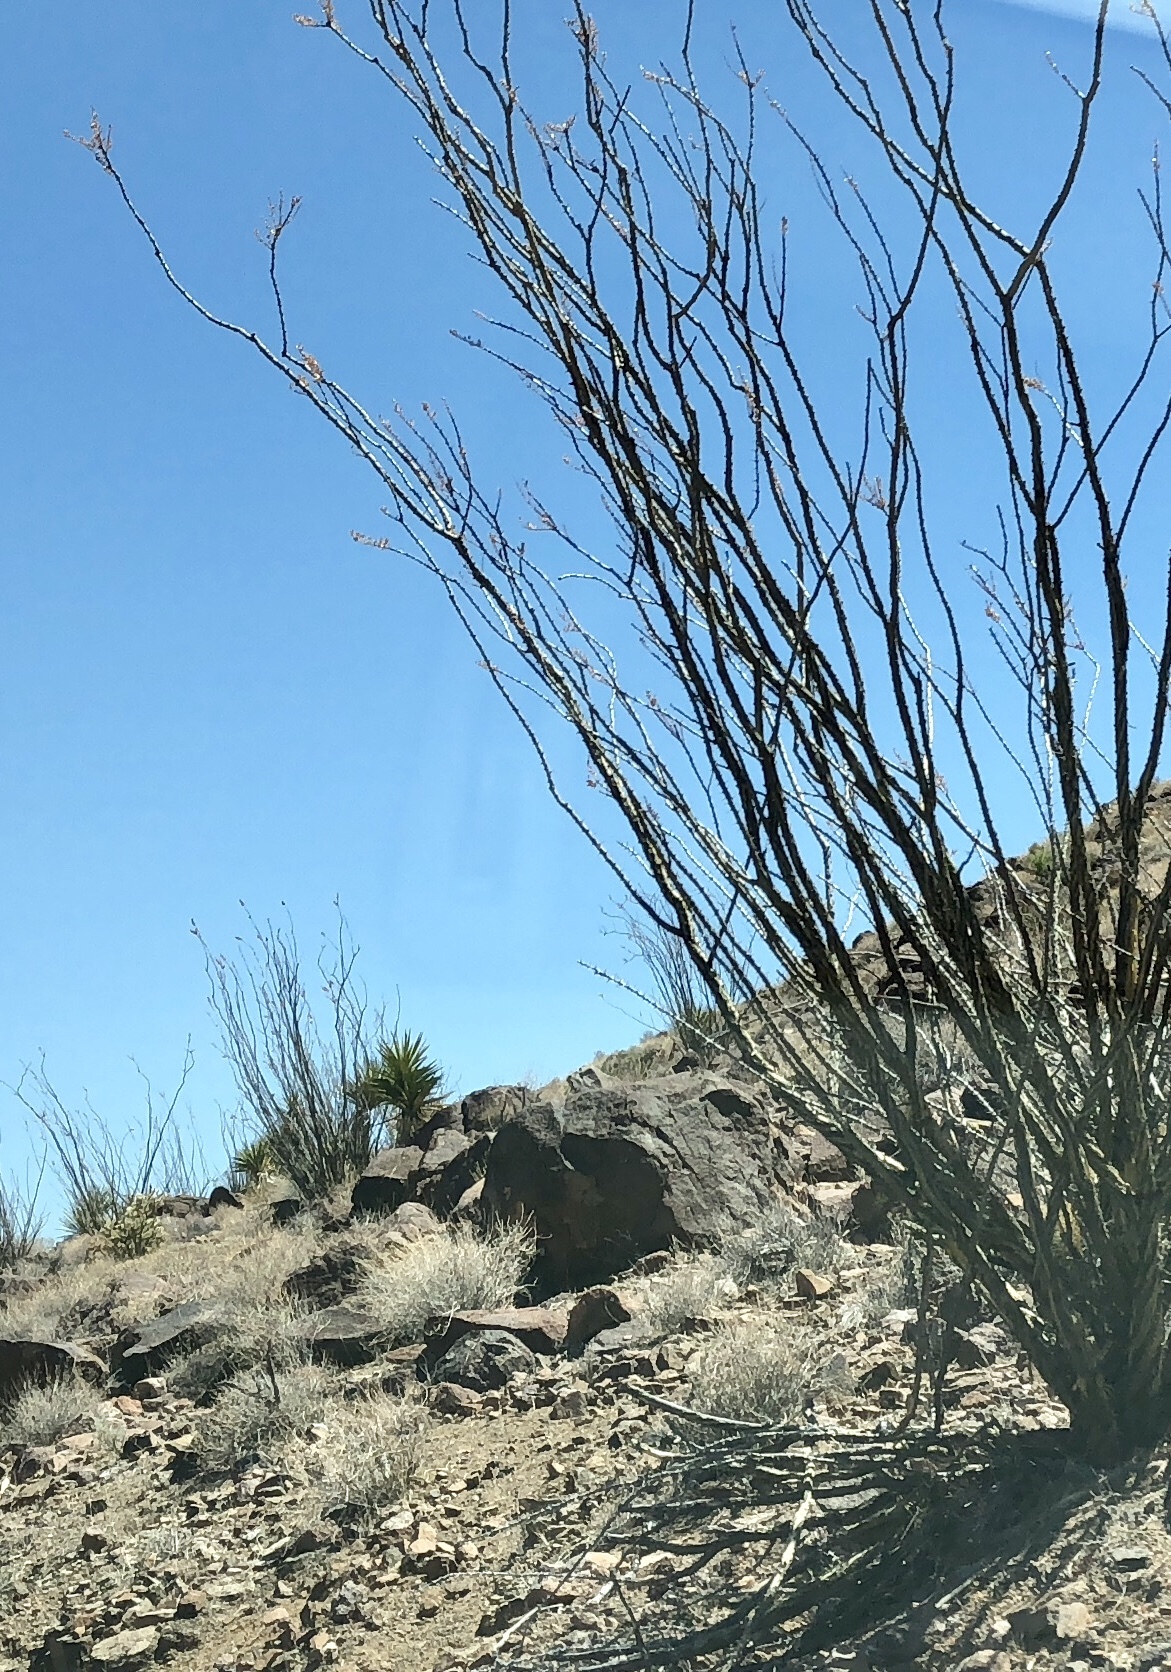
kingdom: Plantae
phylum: Tracheophyta
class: Magnoliopsida
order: Ericales
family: Fouquieriaceae
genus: Fouquieria
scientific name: Fouquieria splendens
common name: Vine-cactus
